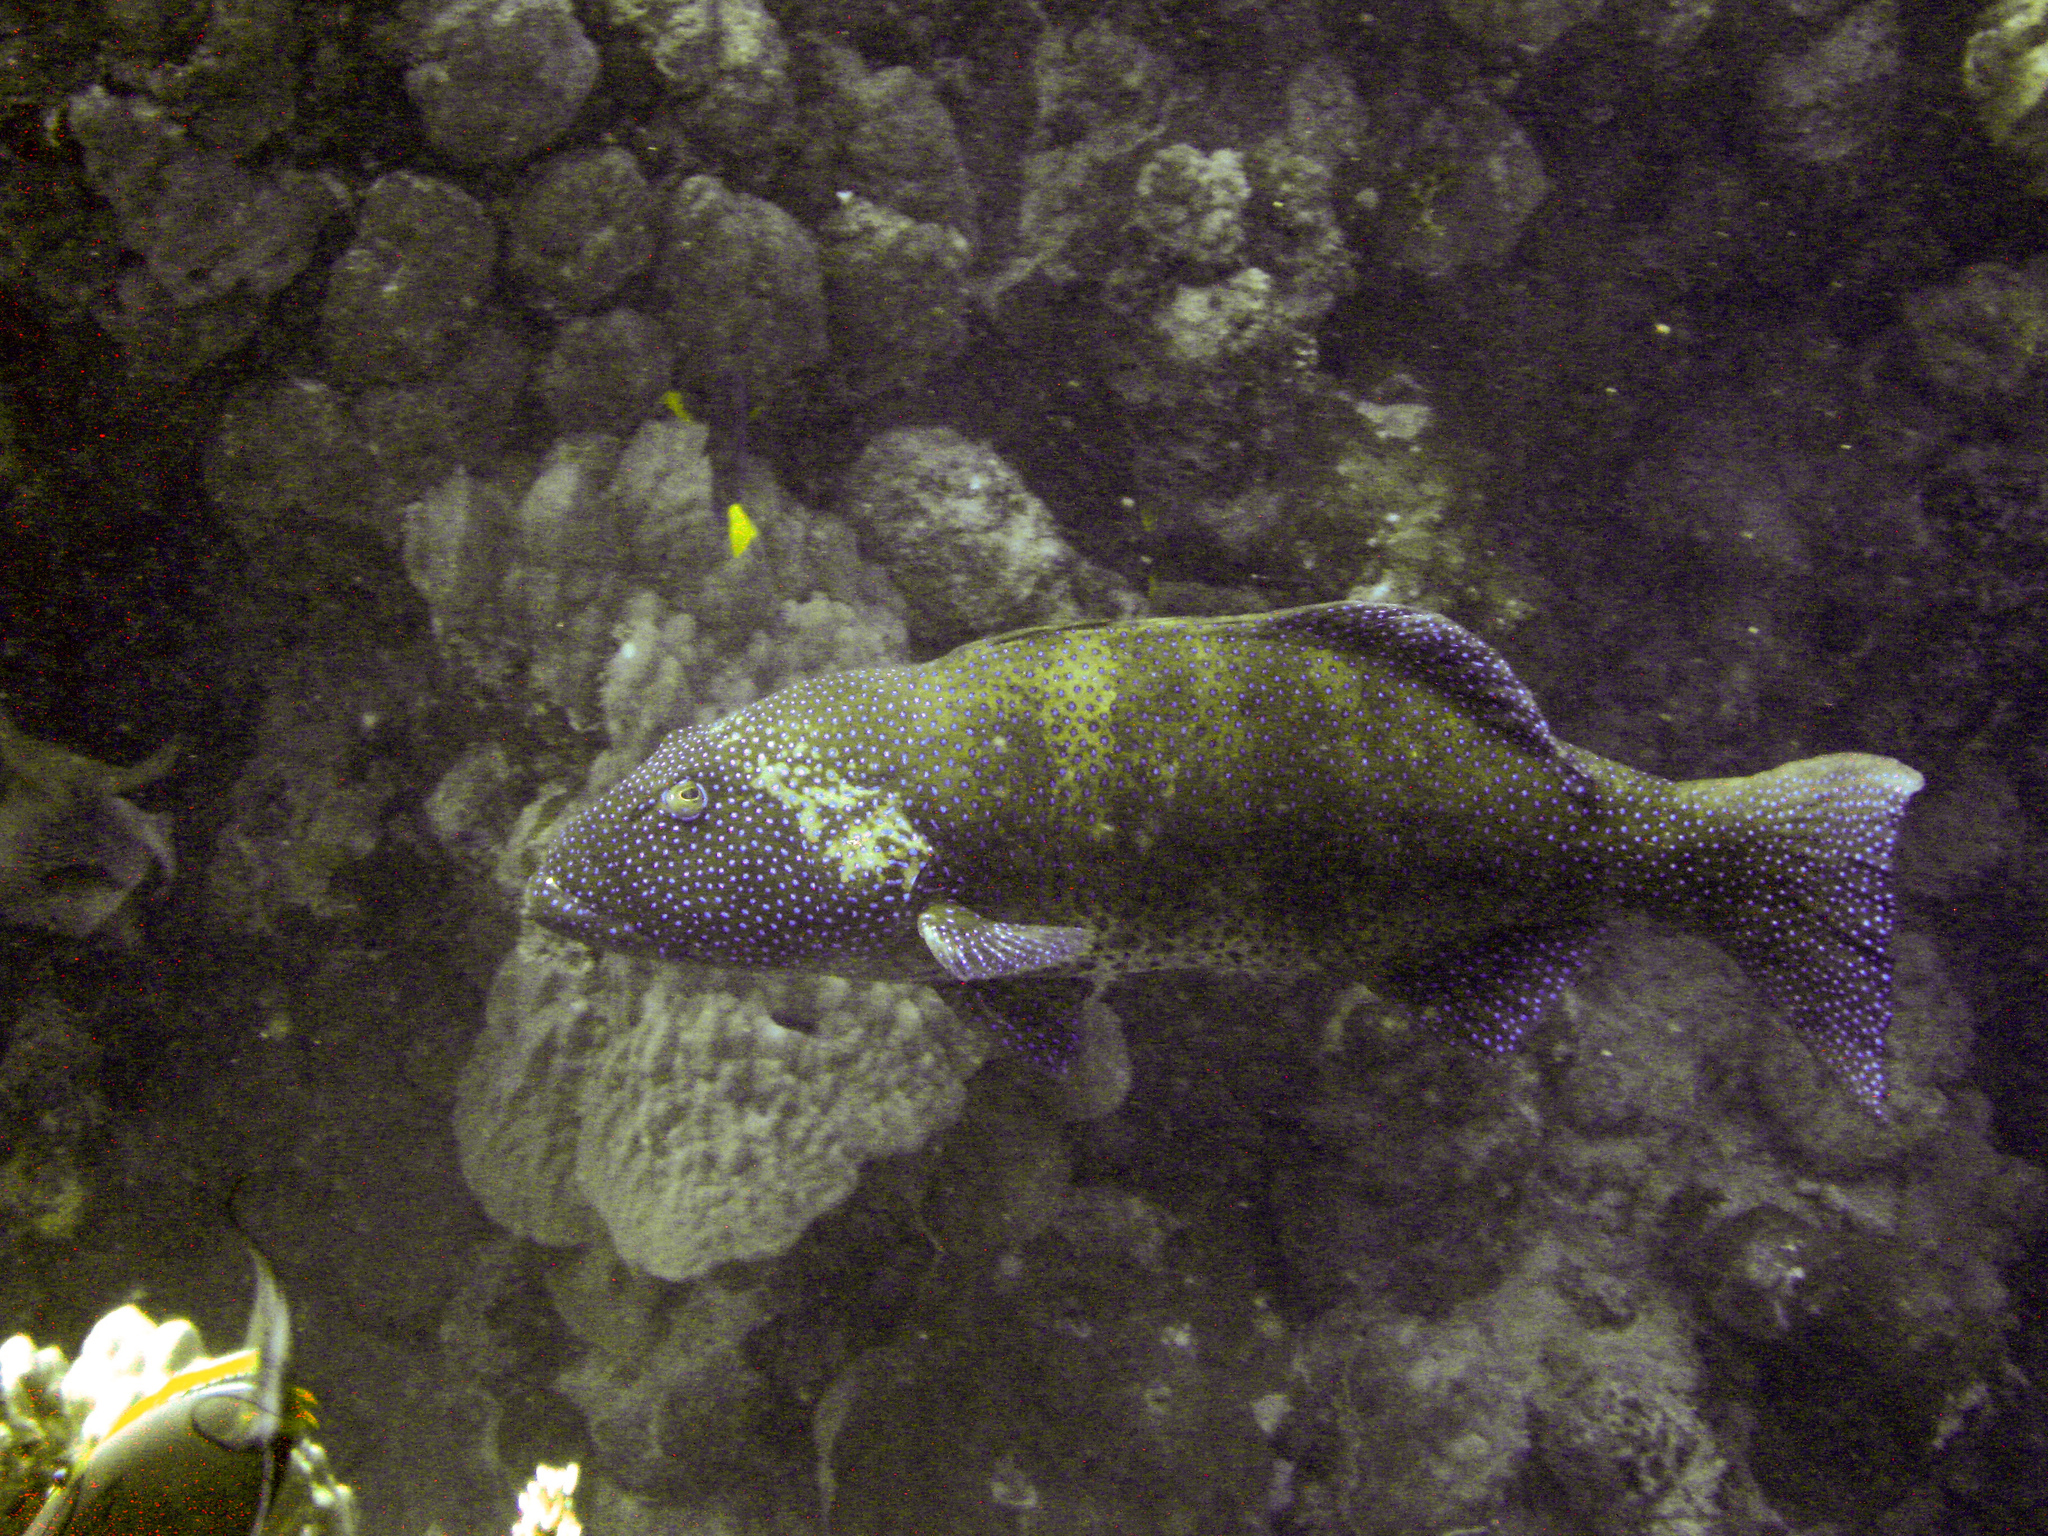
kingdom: Animalia
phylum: Chordata
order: Perciformes
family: Serranidae
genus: Plectropomus
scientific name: Plectropomus pessuliferus
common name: Roving coralgrouper
